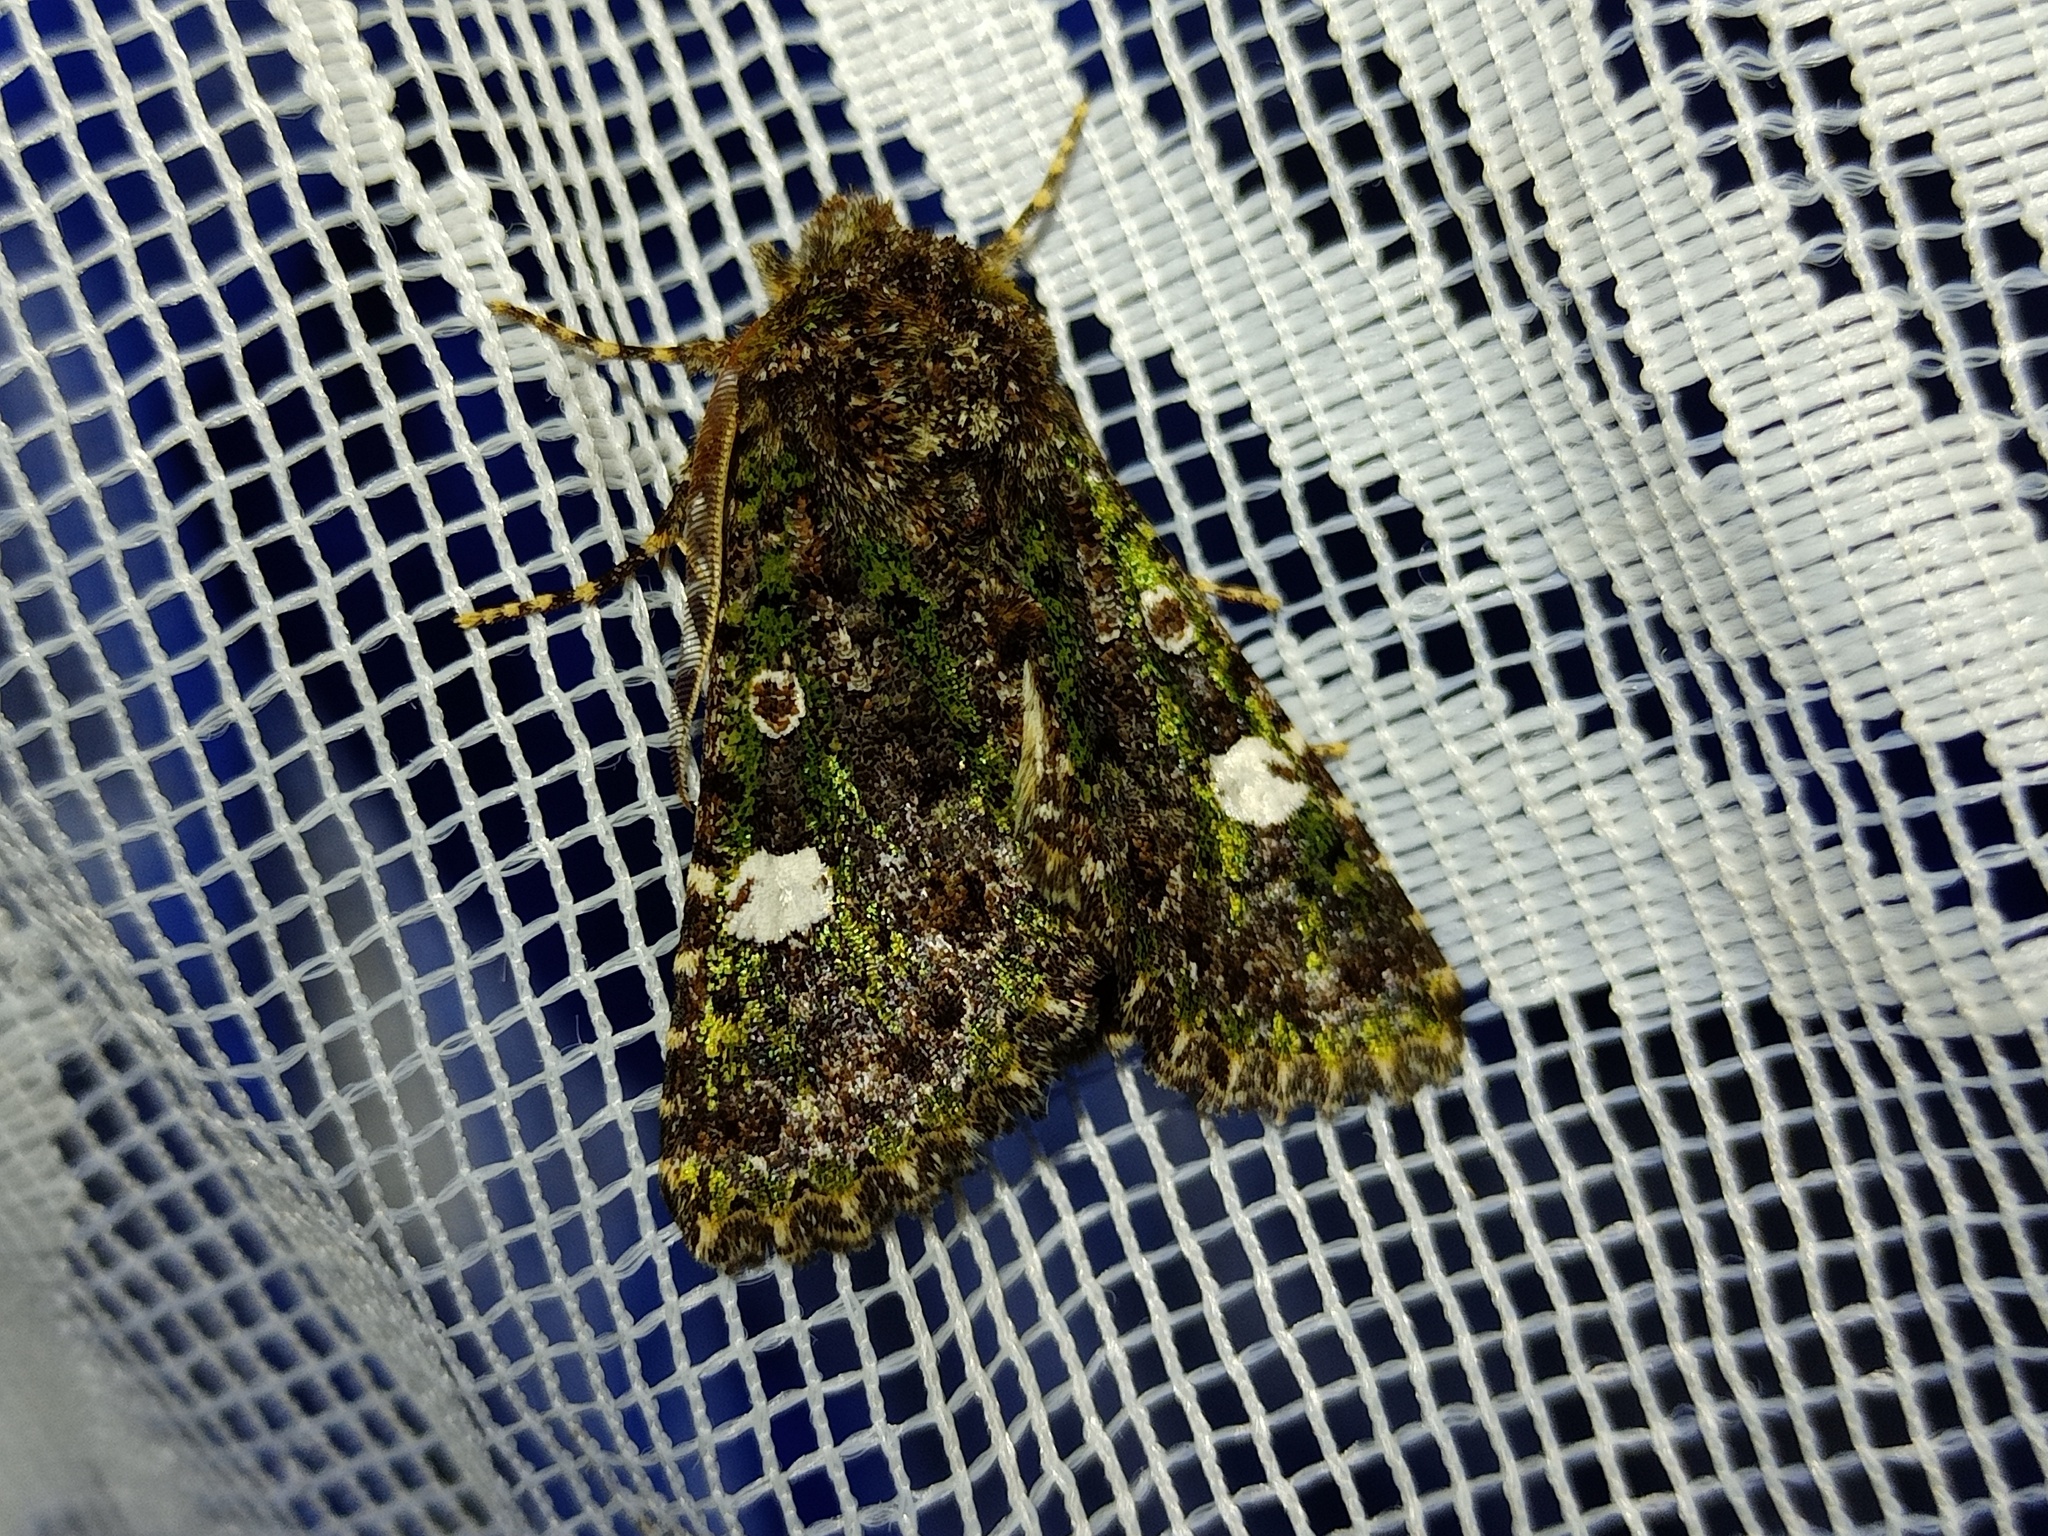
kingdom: Animalia
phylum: Arthropoda
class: Insecta
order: Lepidoptera
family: Noctuidae
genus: Valeria
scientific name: Valeria oleagina
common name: Green-brindled dot
